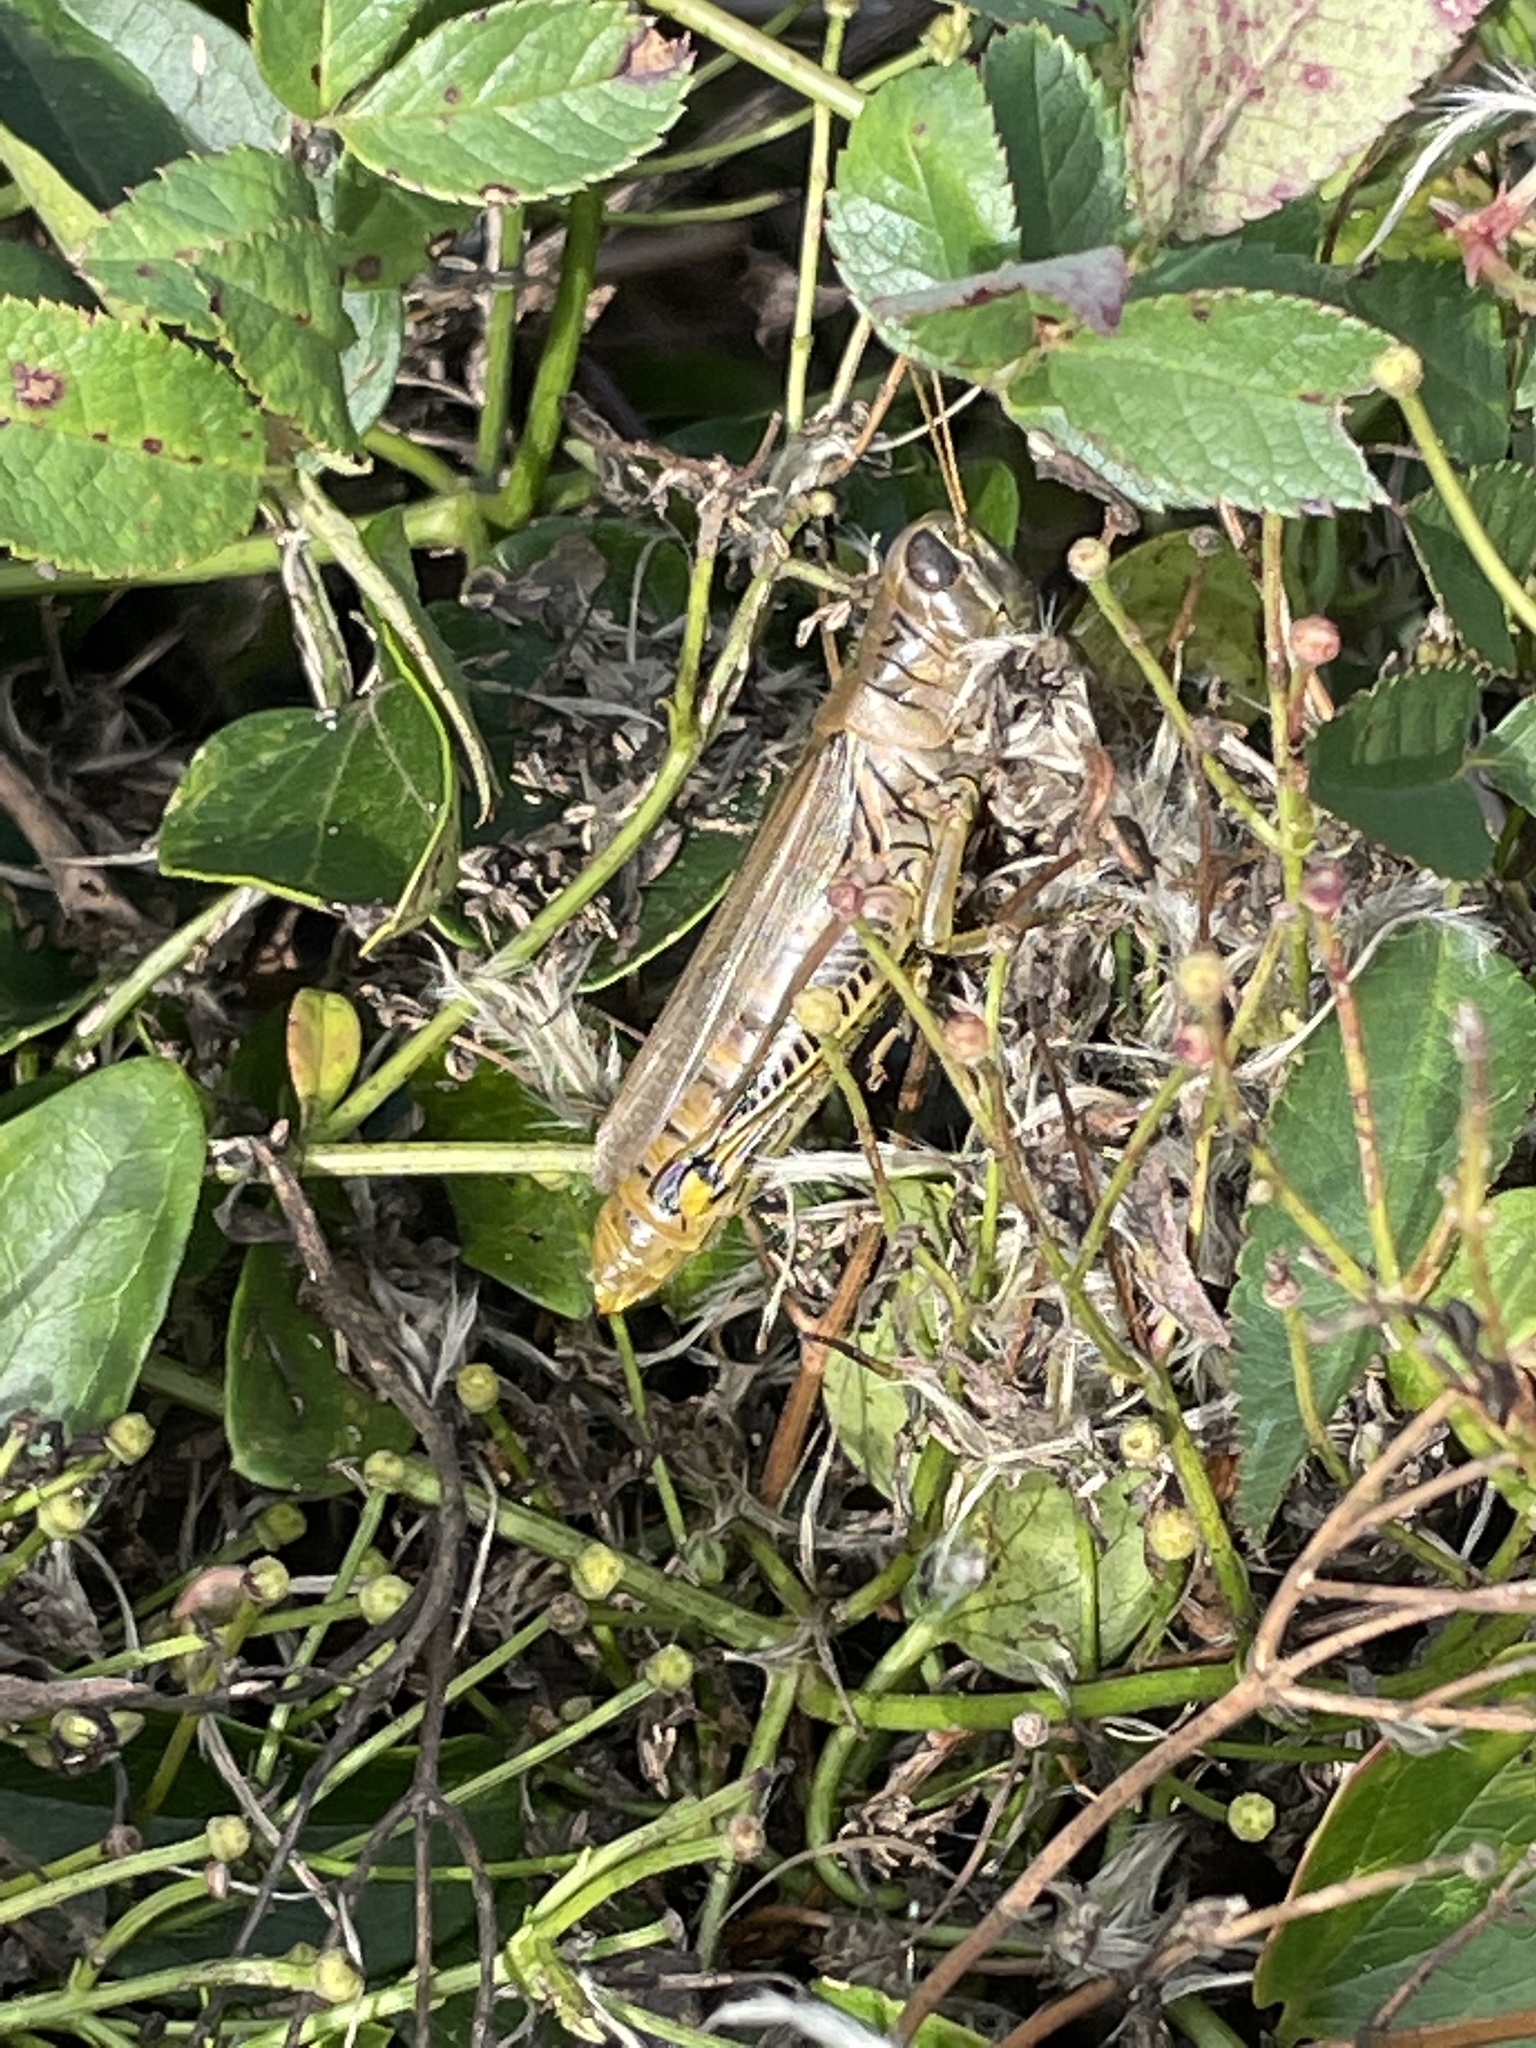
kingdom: Animalia
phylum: Arthropoda
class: Insecta
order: Orthoptera
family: Acrididae
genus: Melanoplus
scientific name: Melanoplus differentialis
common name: Differential grasshopper
